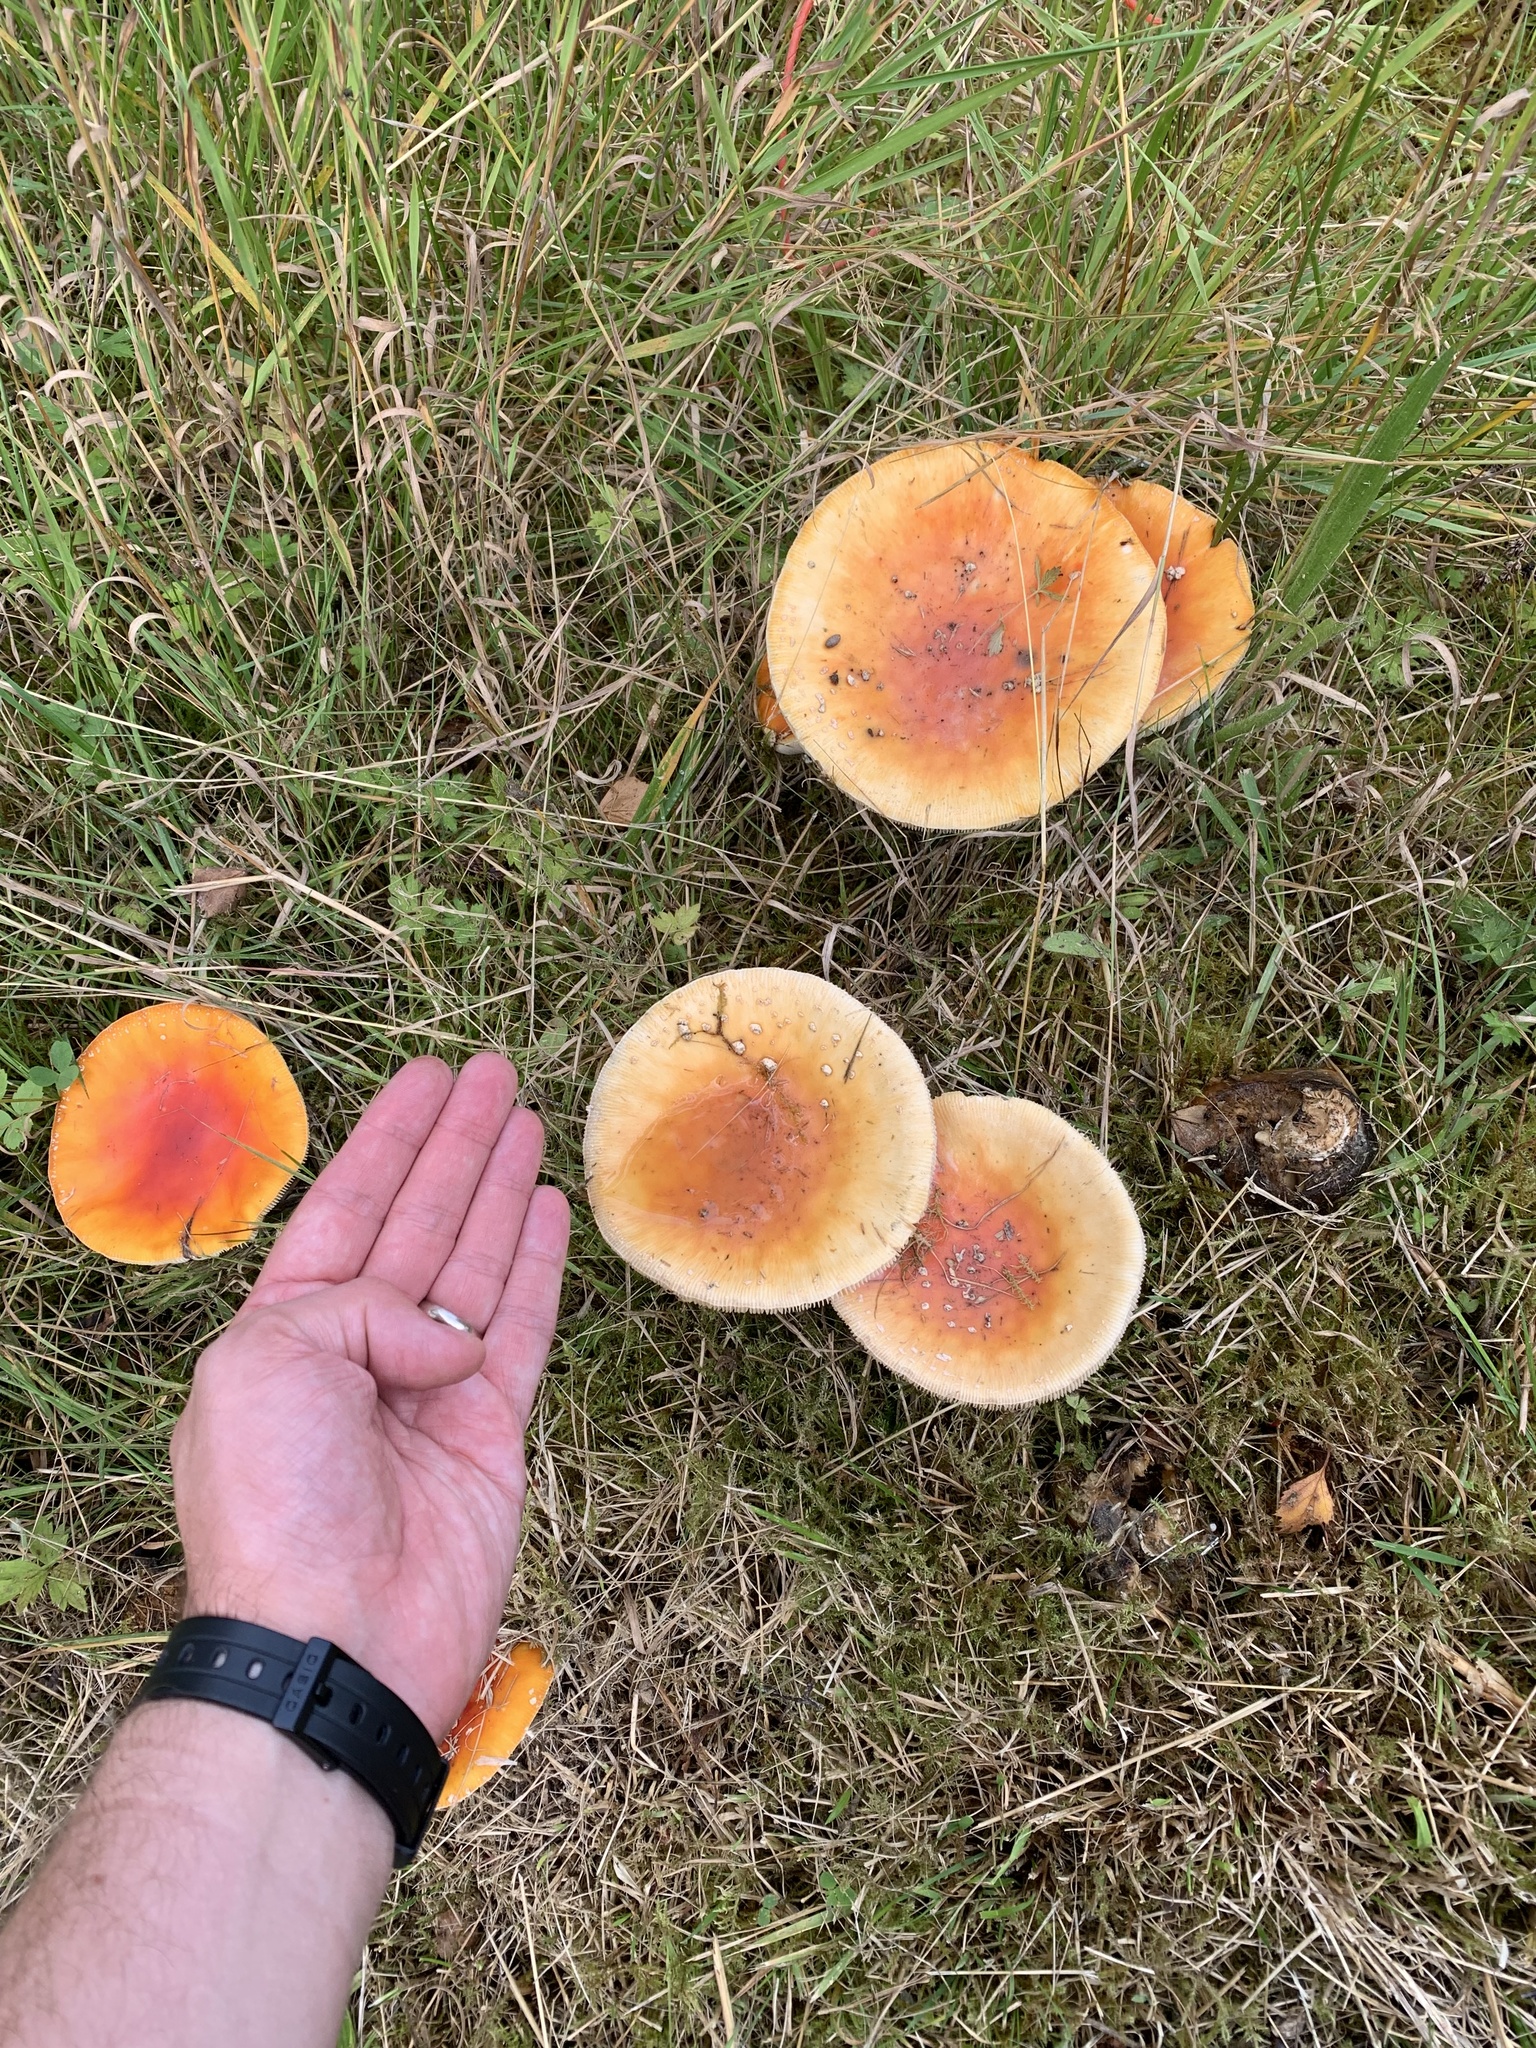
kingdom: Fungi
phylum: Basidiomycota
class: Agaricomycetes
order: Agaricales
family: Amanitaceae
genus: Amanita
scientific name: Amanita muscaria
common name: Fly agaric
